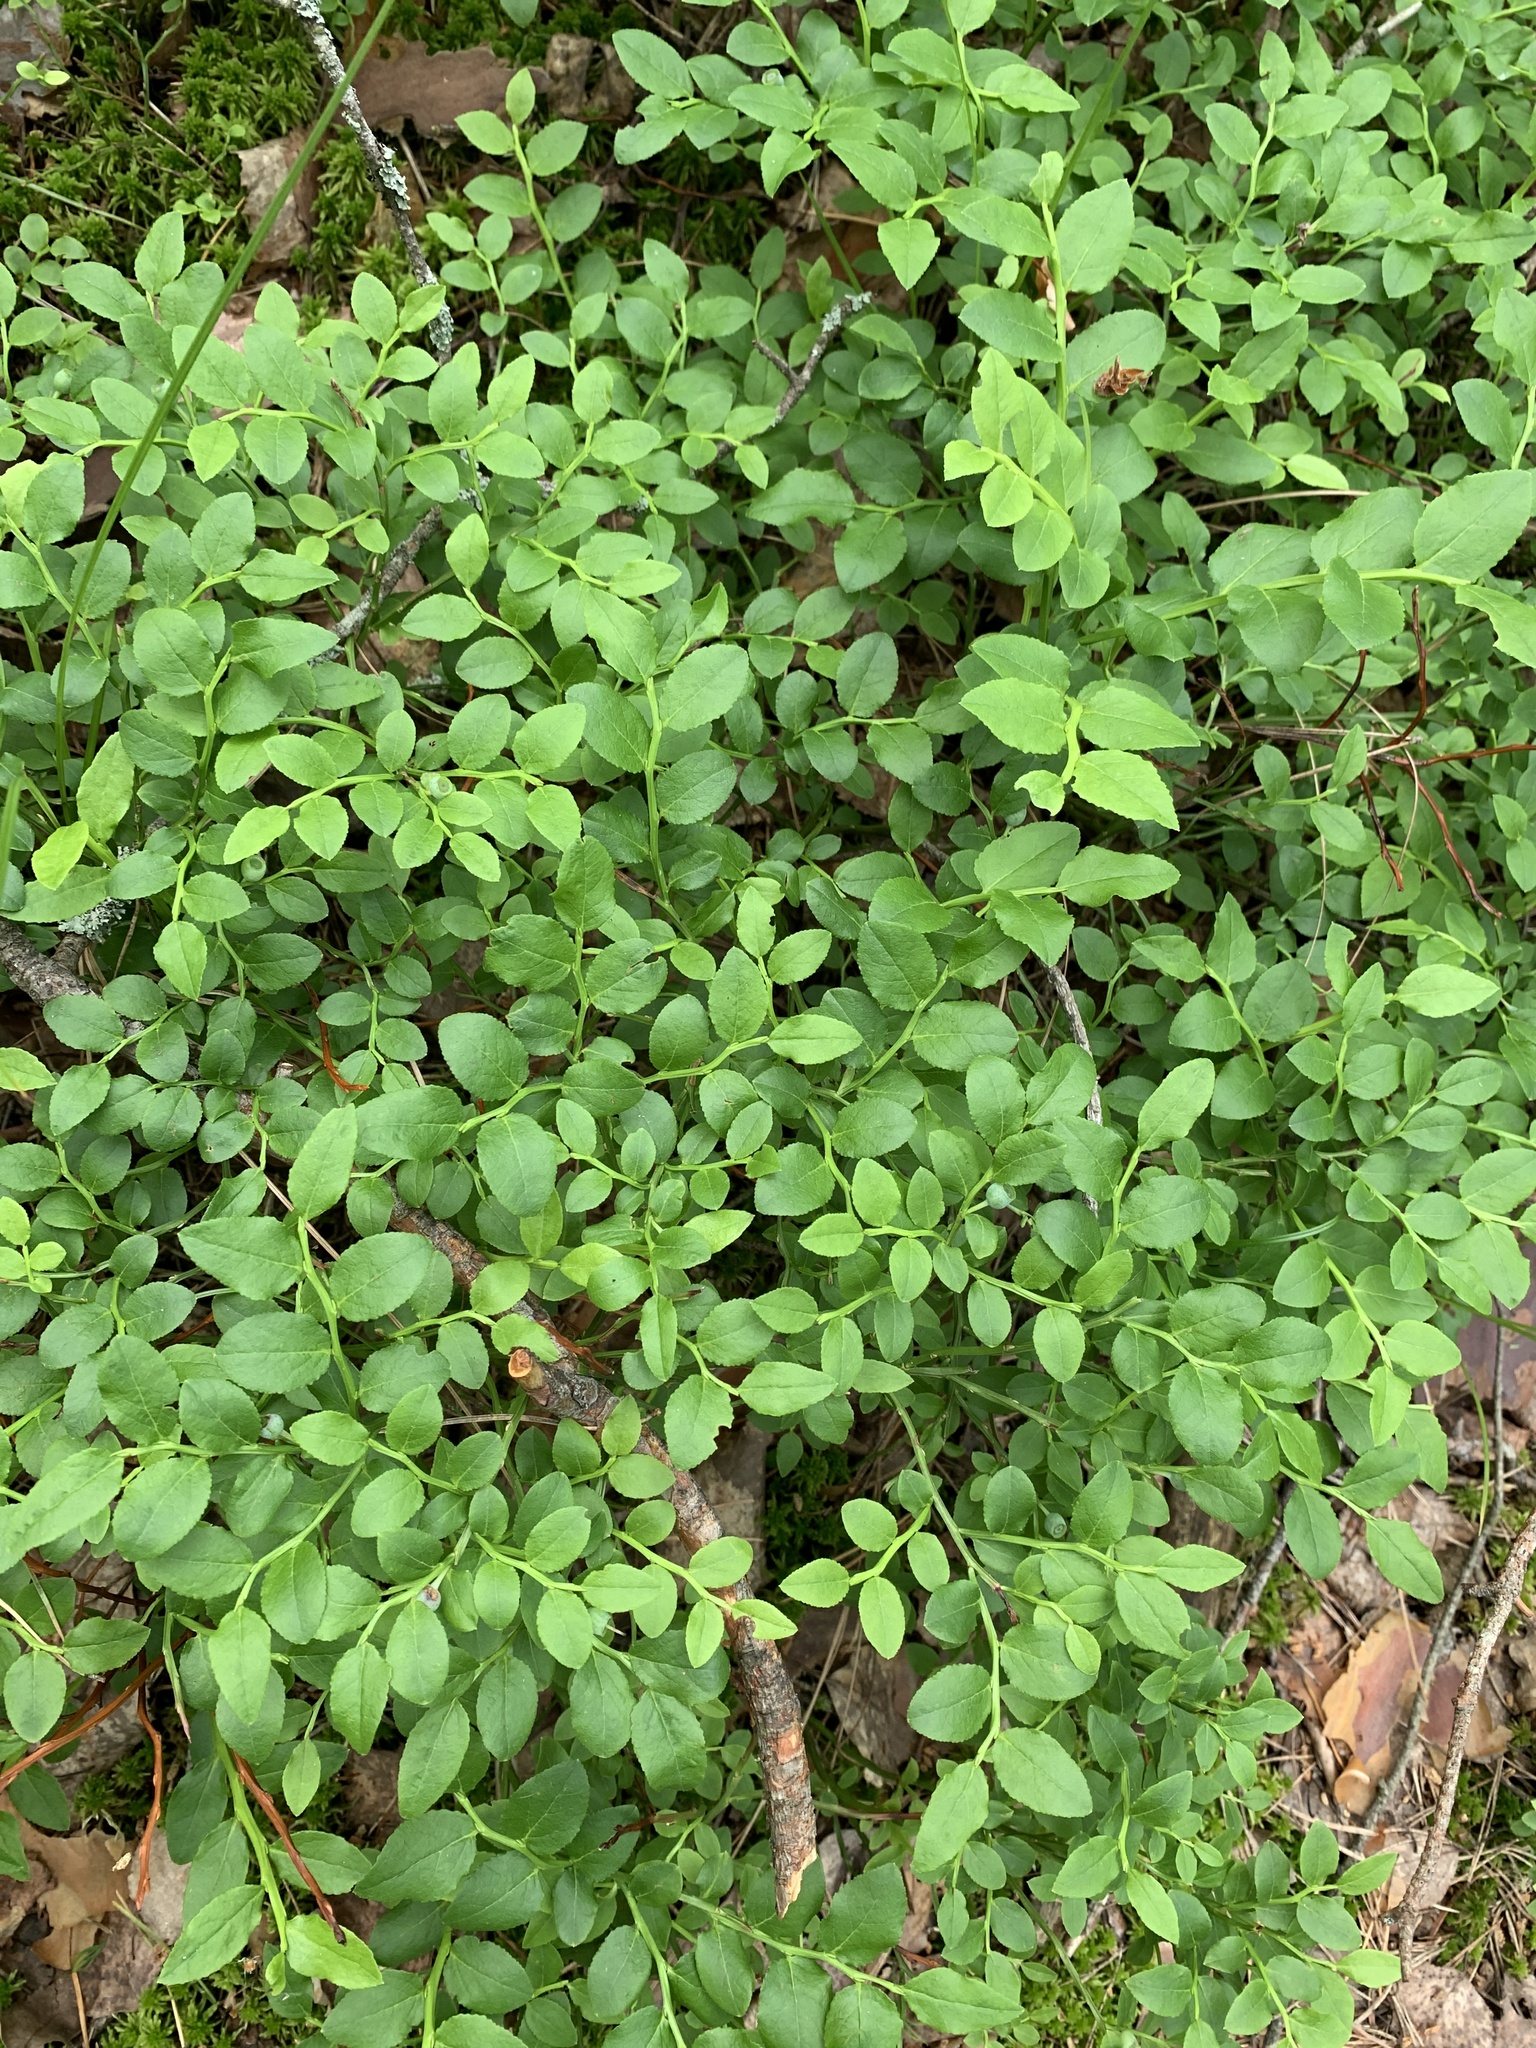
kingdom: Plantae
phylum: Tracheophyta
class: Magnoliopsida
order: Ericales
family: Ericaceae
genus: Vaccinium
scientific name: Vaccinium myrtillus
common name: Bilberry
